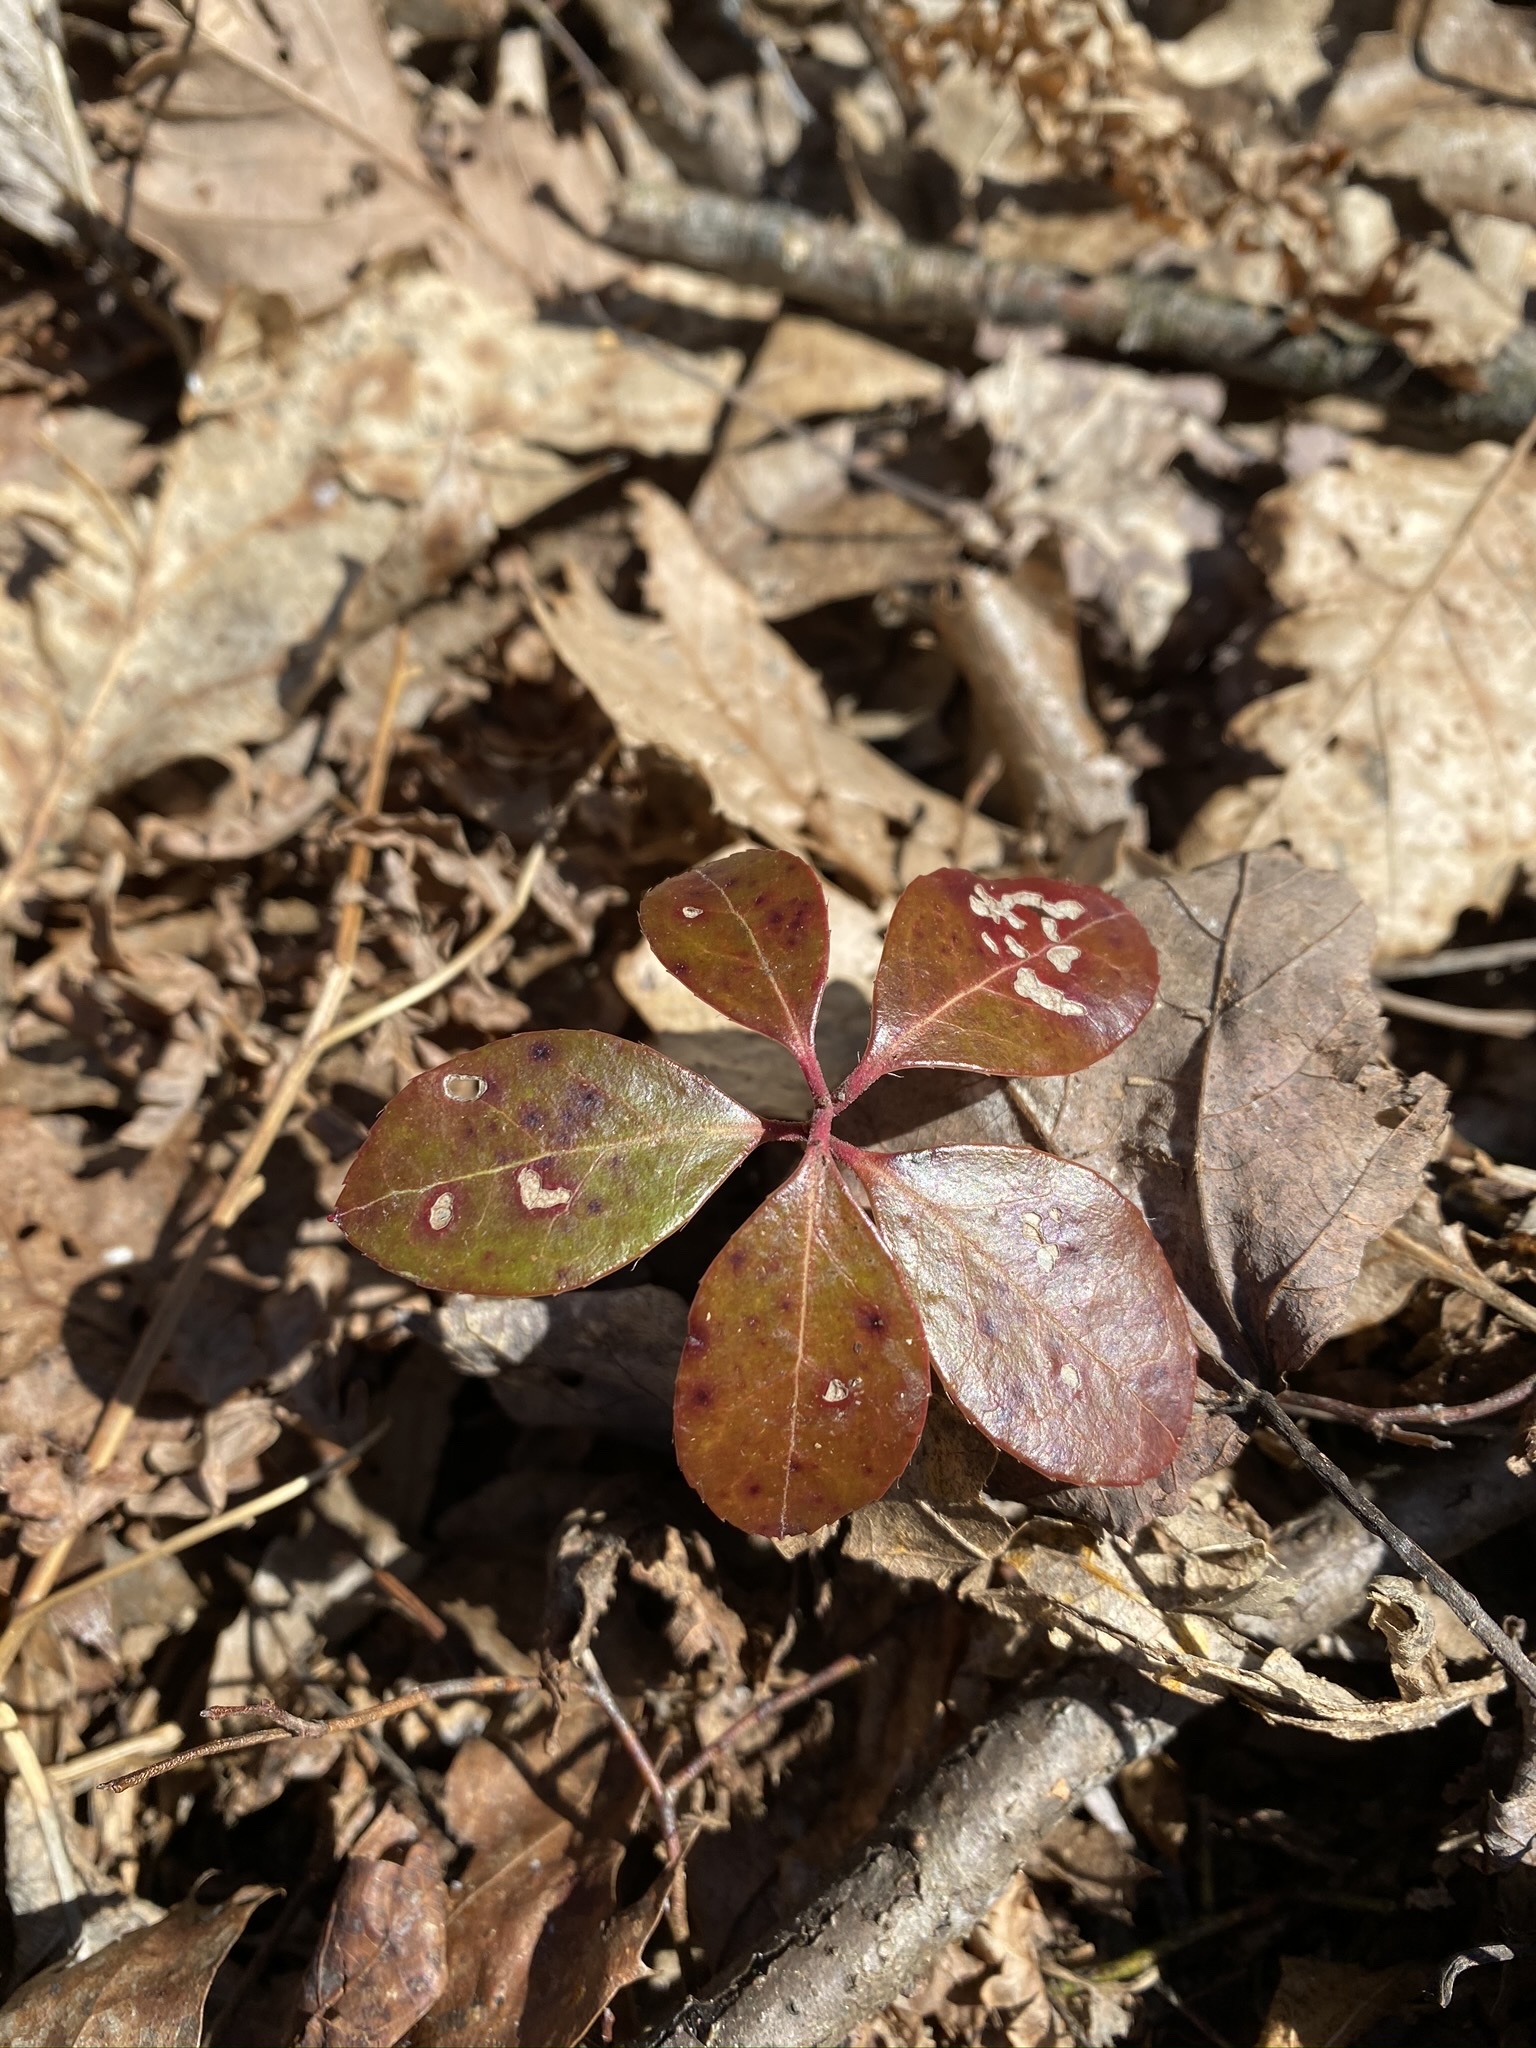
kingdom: Plantae
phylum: Tracheophyta
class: Magnoliopsida
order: Ericales
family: Ericaceae
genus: Gaultheria
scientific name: Gaultheria procumbens
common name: Checkerberry
